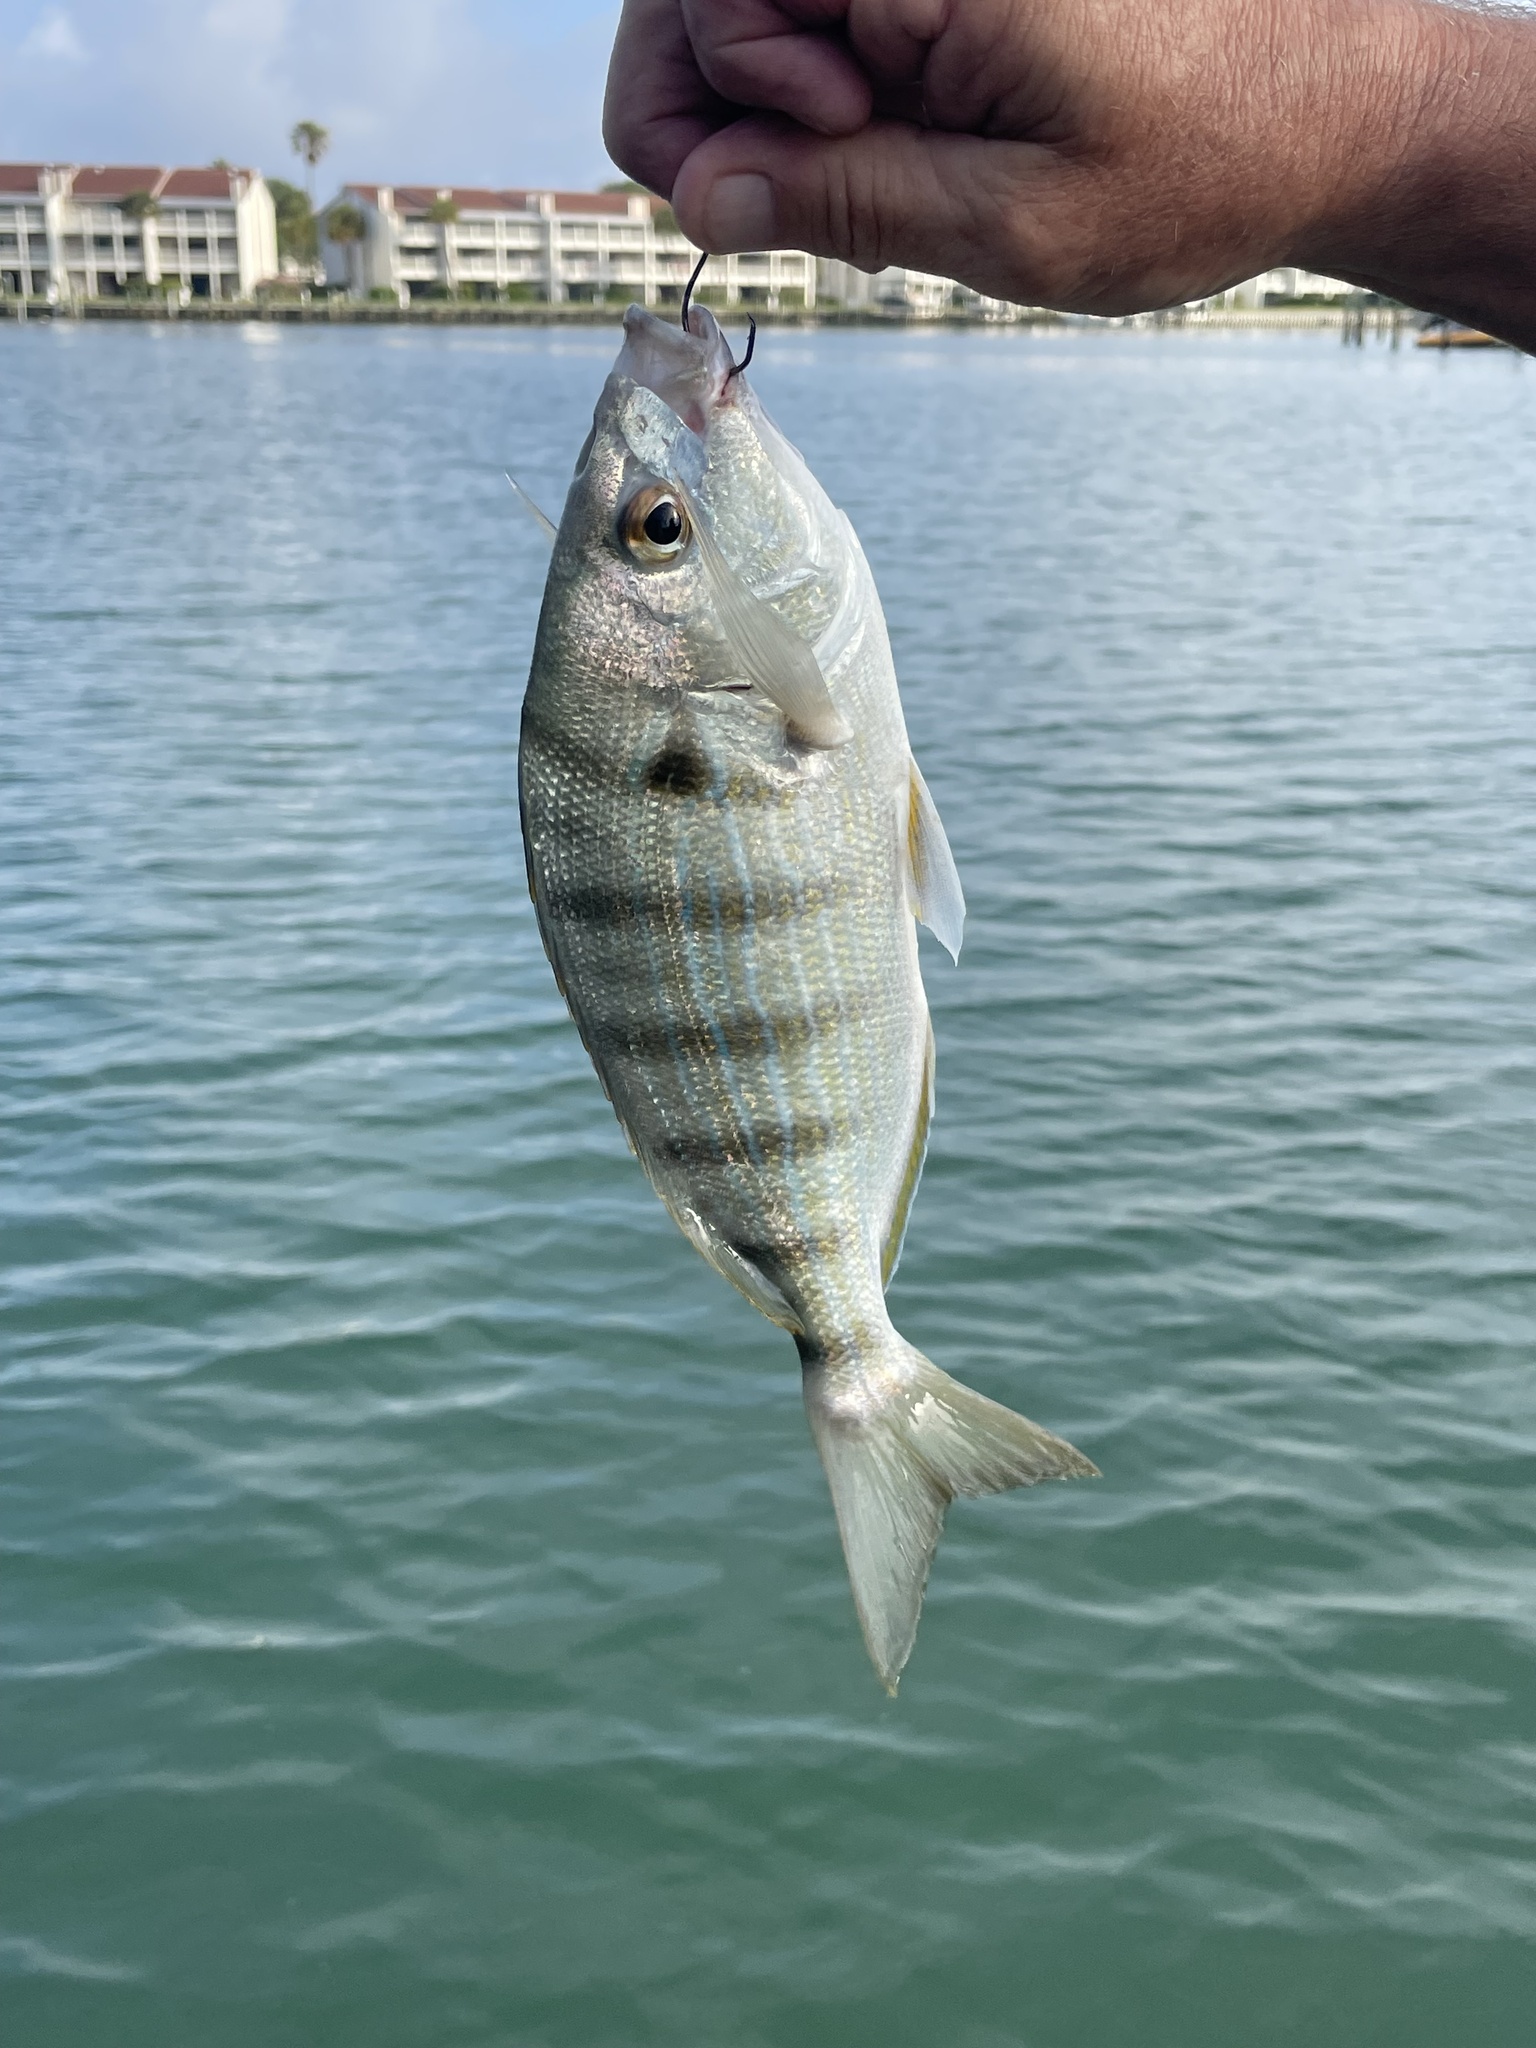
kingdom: Animalia
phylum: Chordata
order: Perciformes
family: Sparidae
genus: Lagodon
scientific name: Lagodon rhomboides
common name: Pinfish
